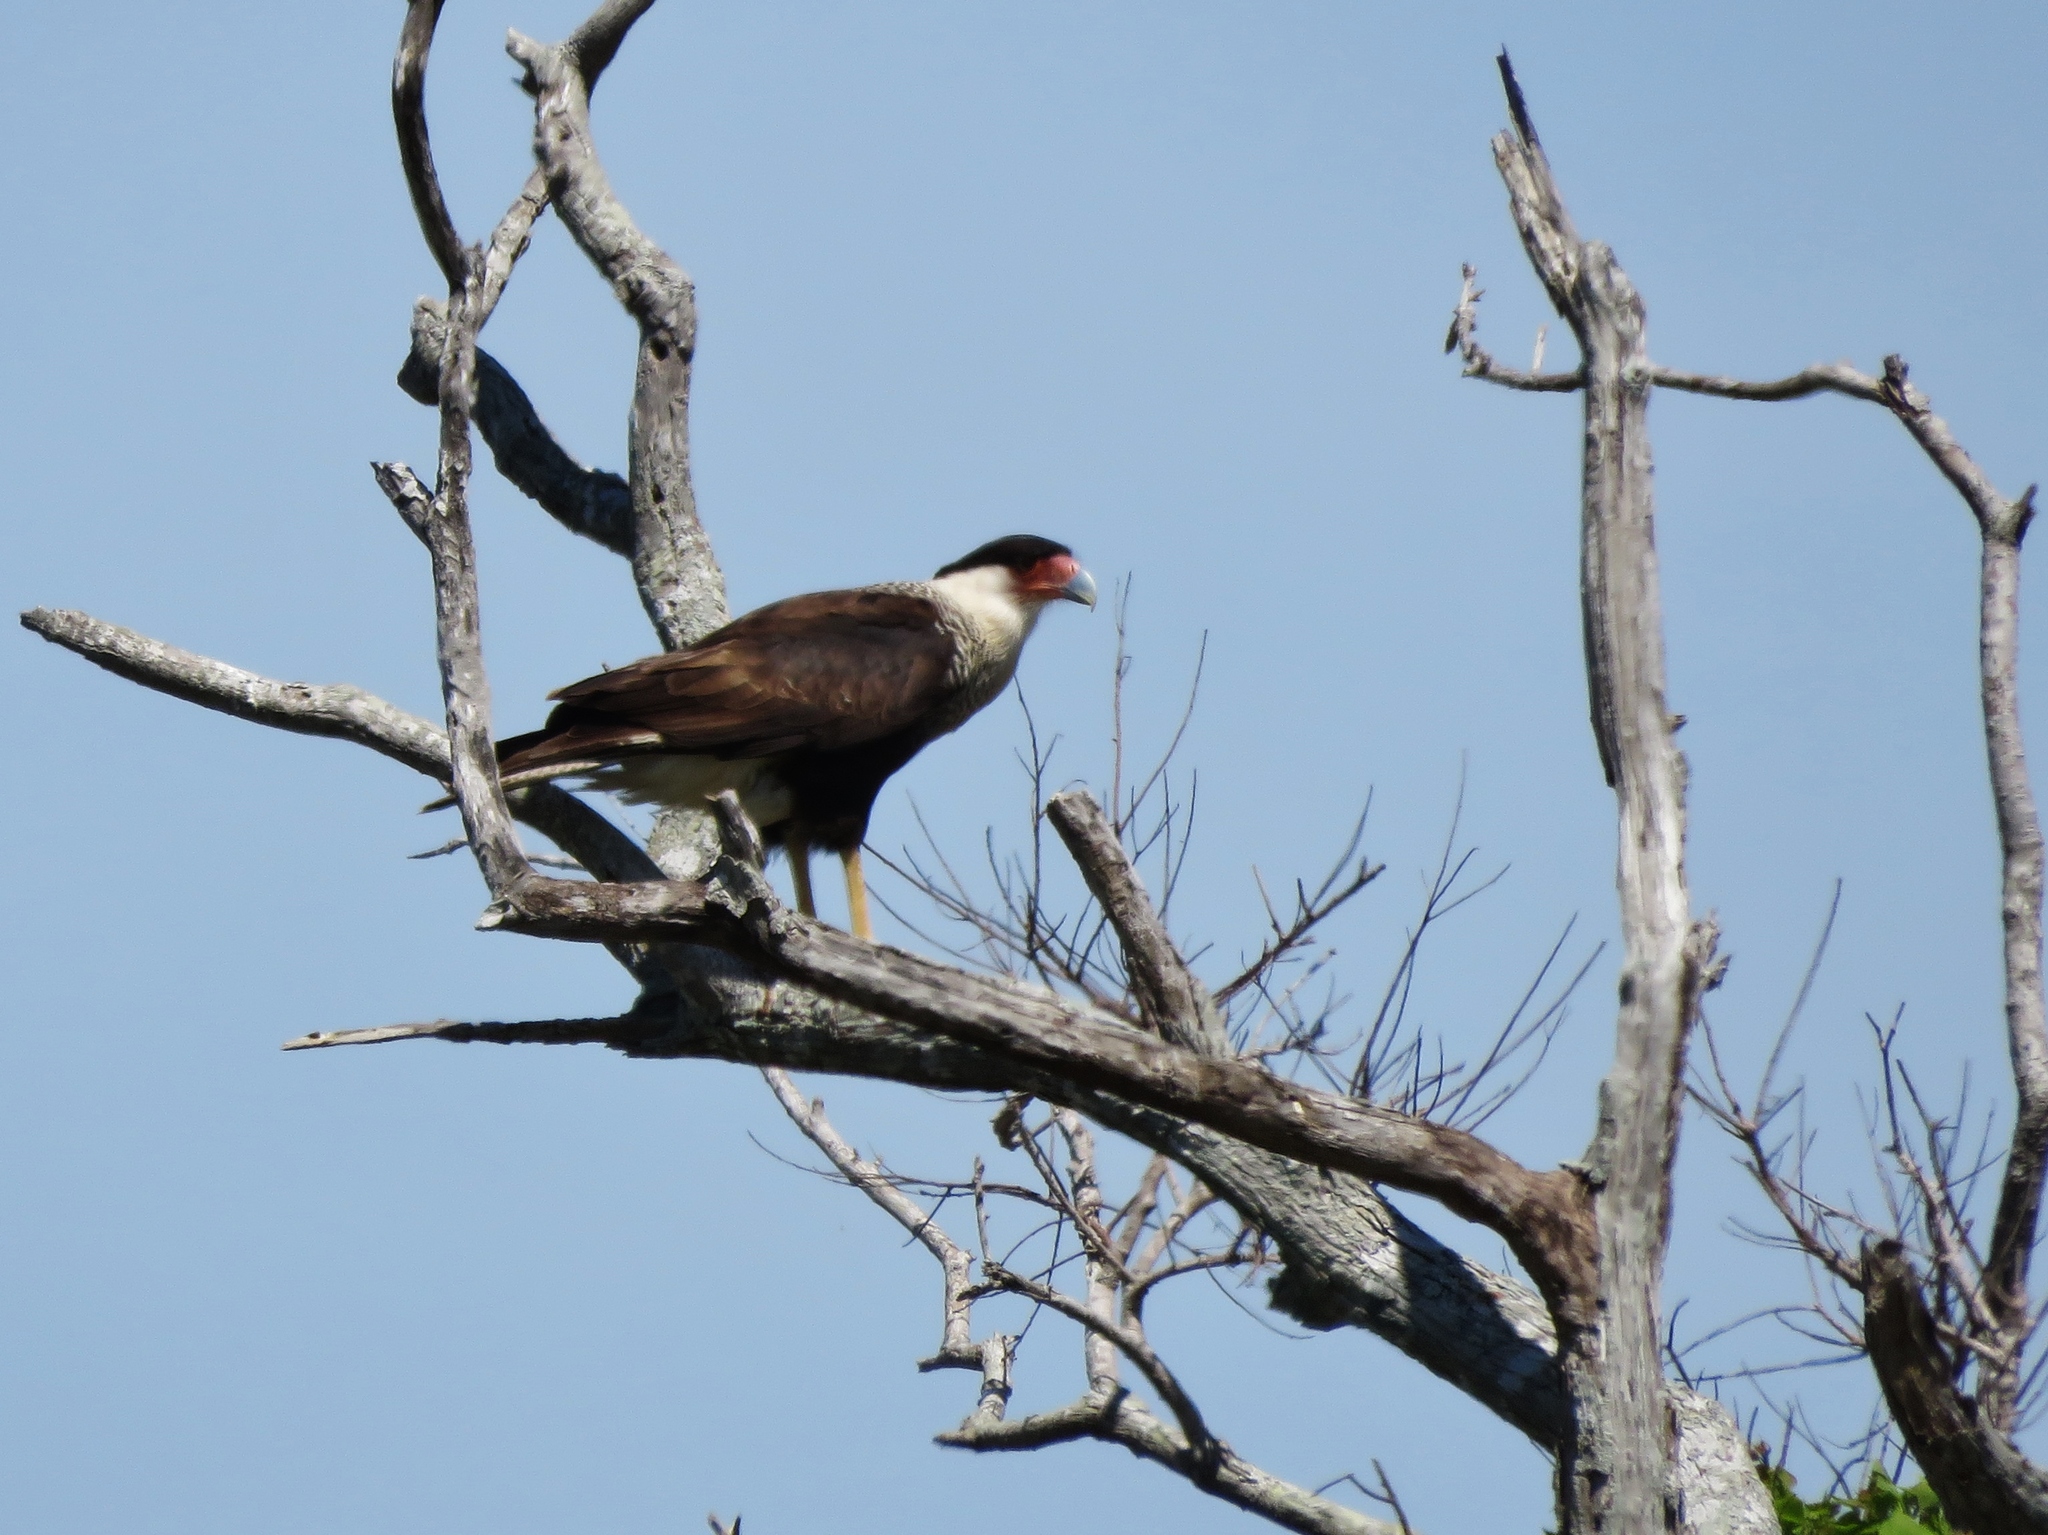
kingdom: Animalia
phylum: Chordata
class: Aves
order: Falconiformes
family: Falconidae
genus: Caracara
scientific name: Caracara plancus
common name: Southern caracara
